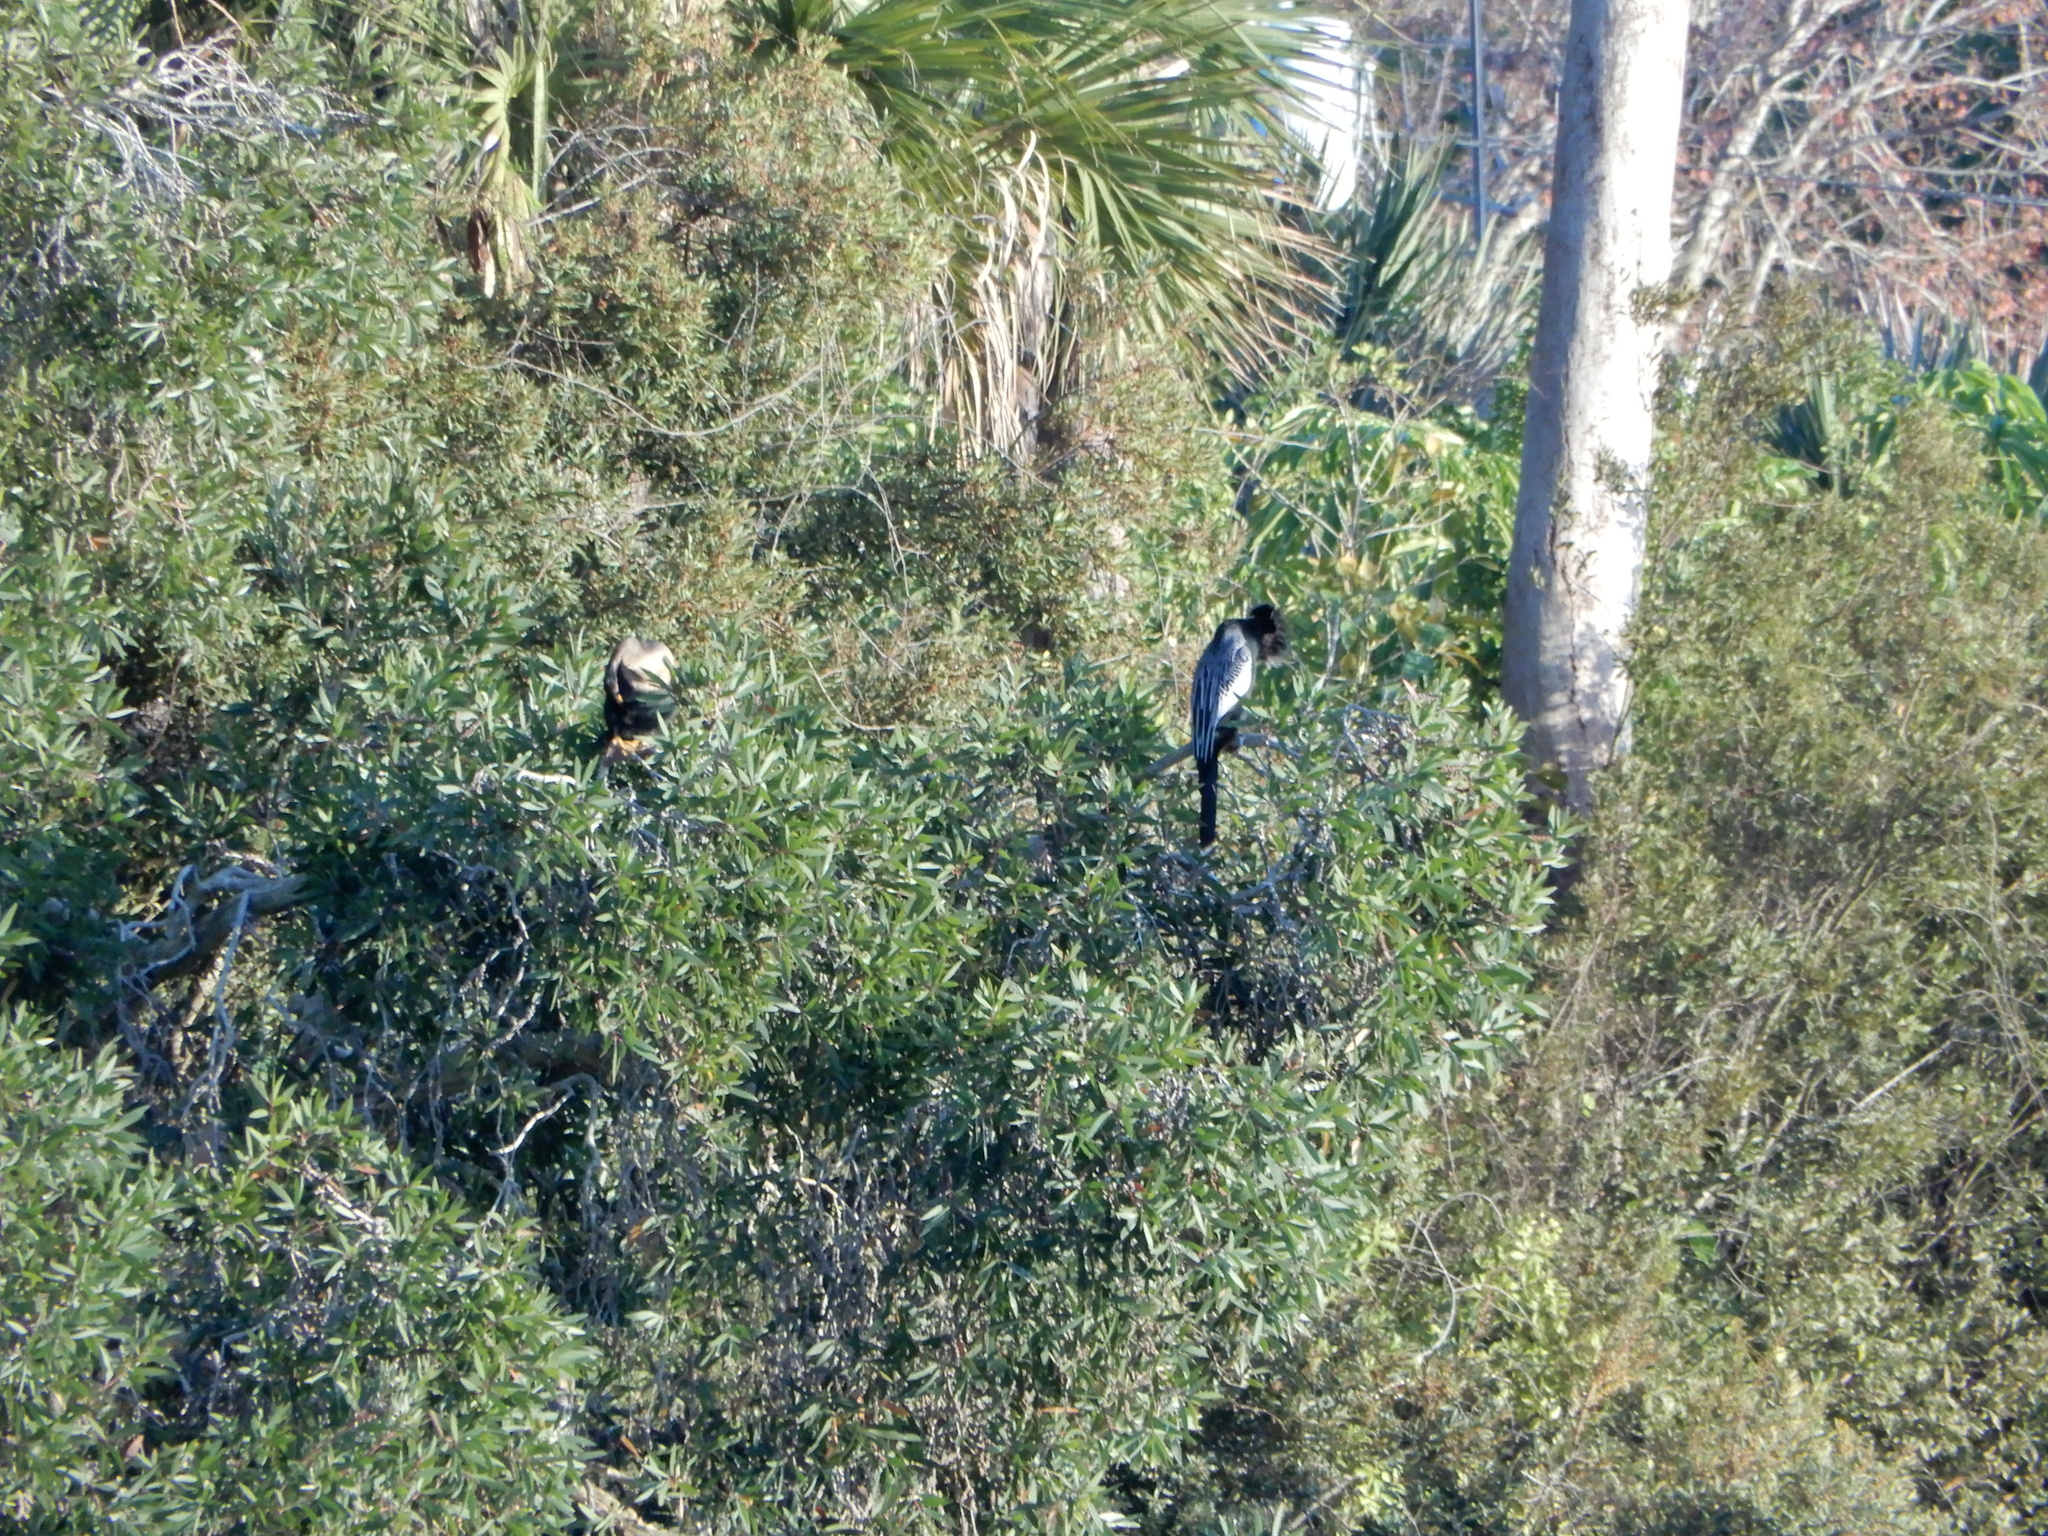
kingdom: Animalia
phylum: Chordata
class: Aves
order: Suliformes
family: Anhingidae
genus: Anhinga
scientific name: Anhinga anhinga
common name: Anhinga
